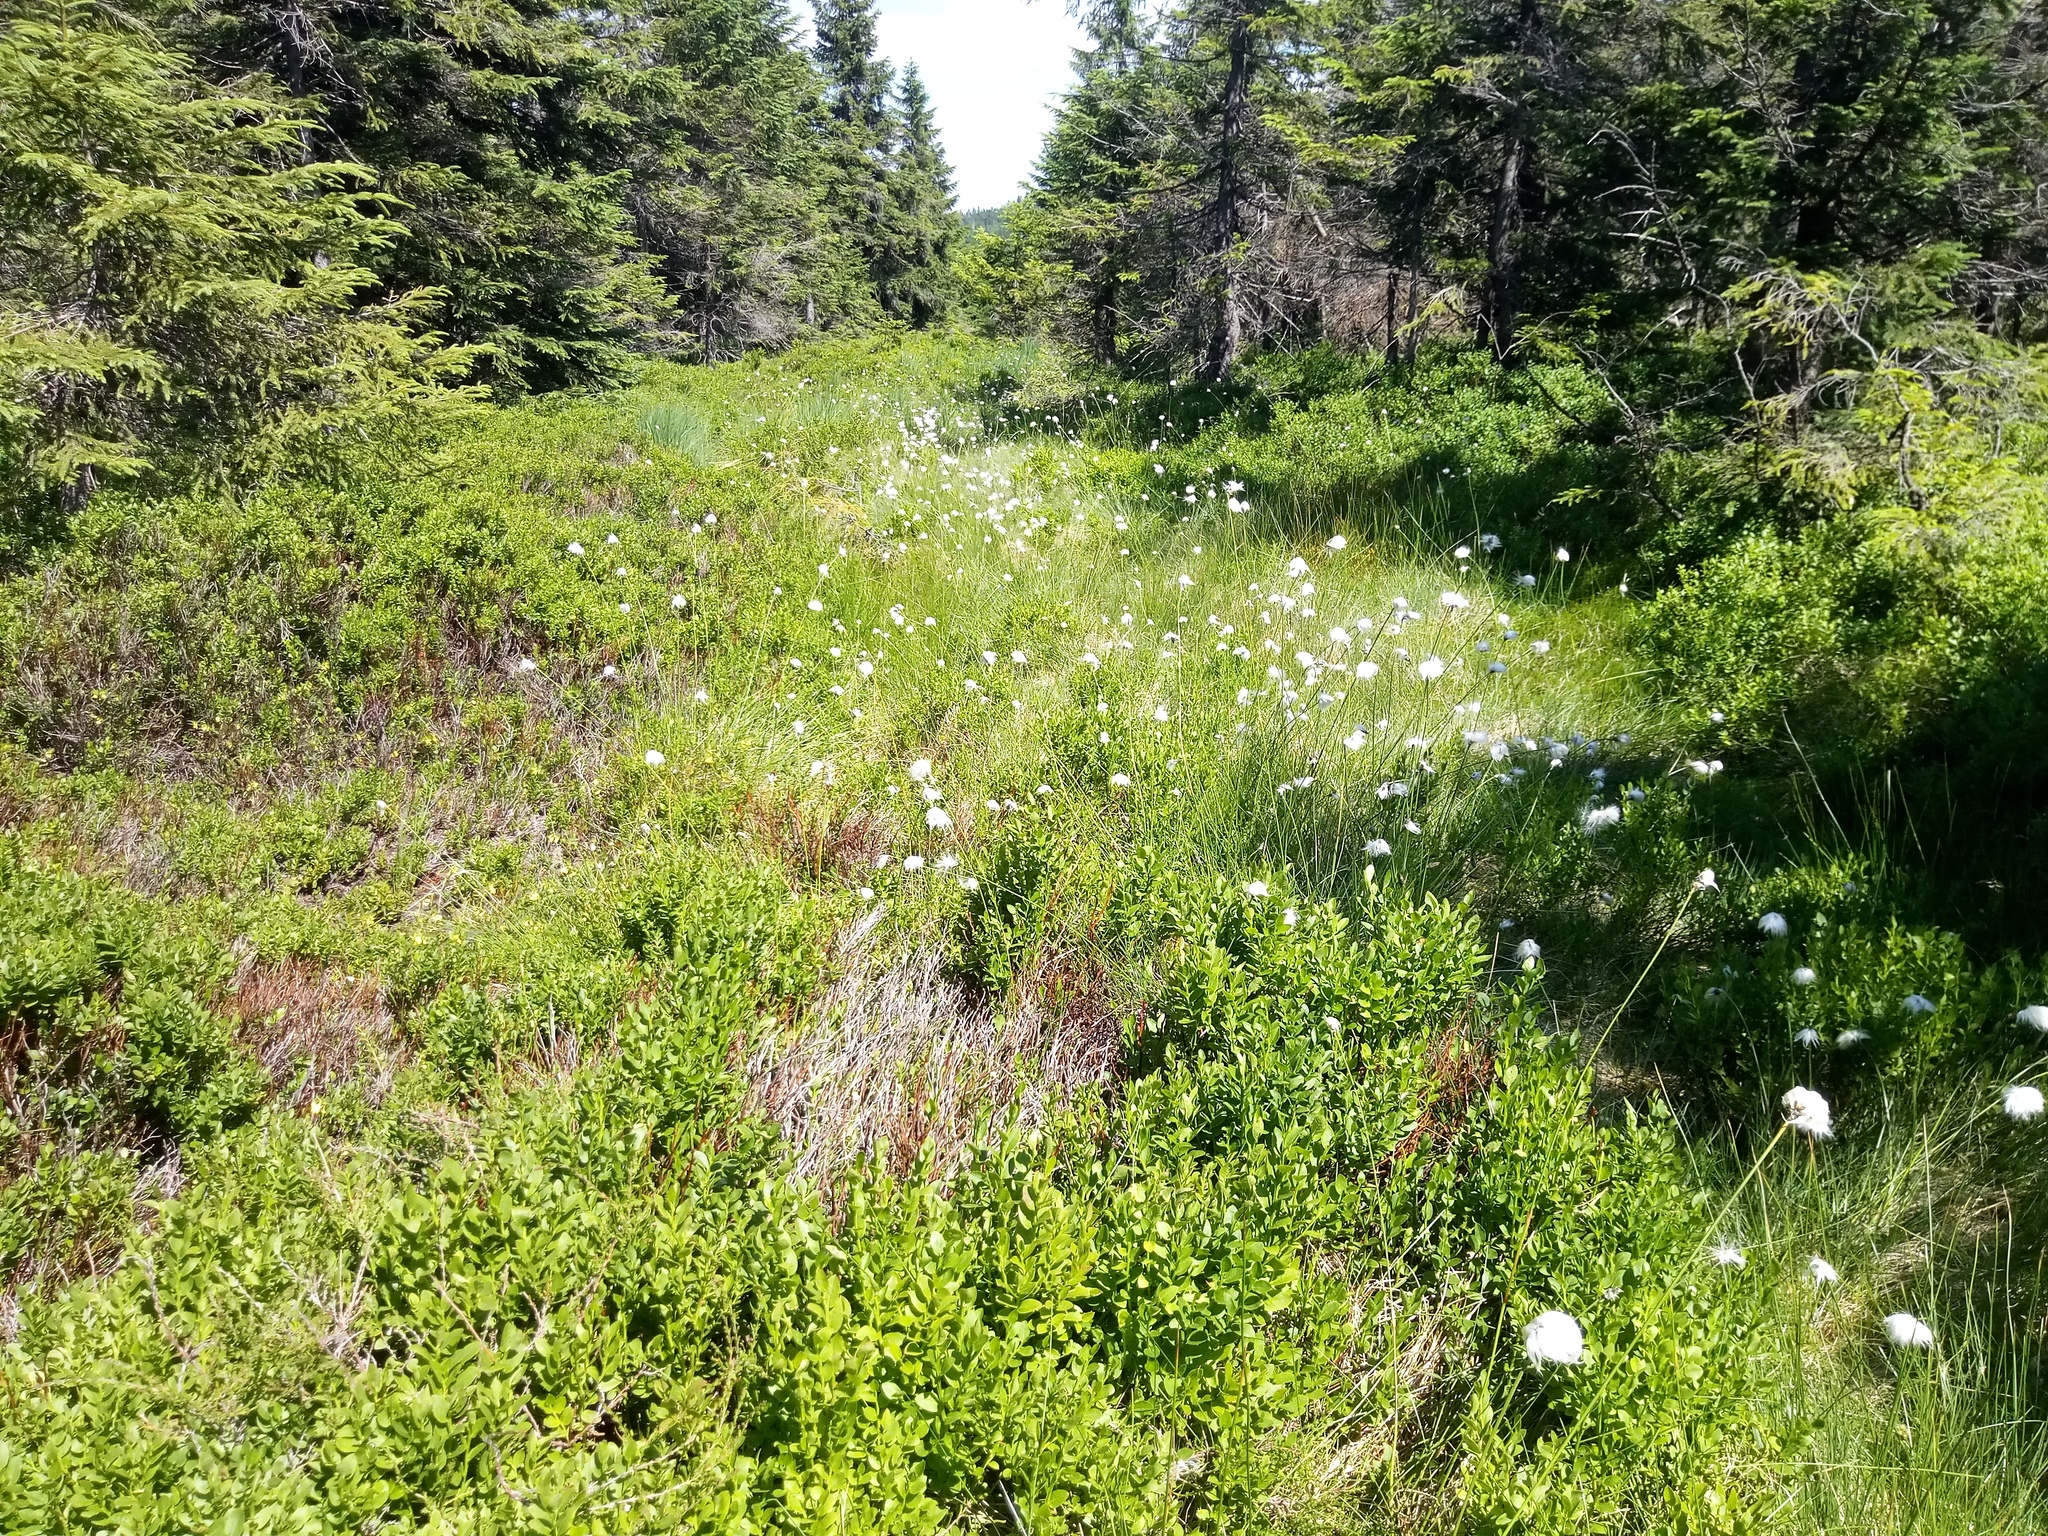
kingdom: Plantae
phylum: Tracheophyta
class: Liliopsida
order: Poales
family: Cyperaceae
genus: Eriophorum
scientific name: Eriophorum vaginatum
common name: Hare's-tail cottongrass
